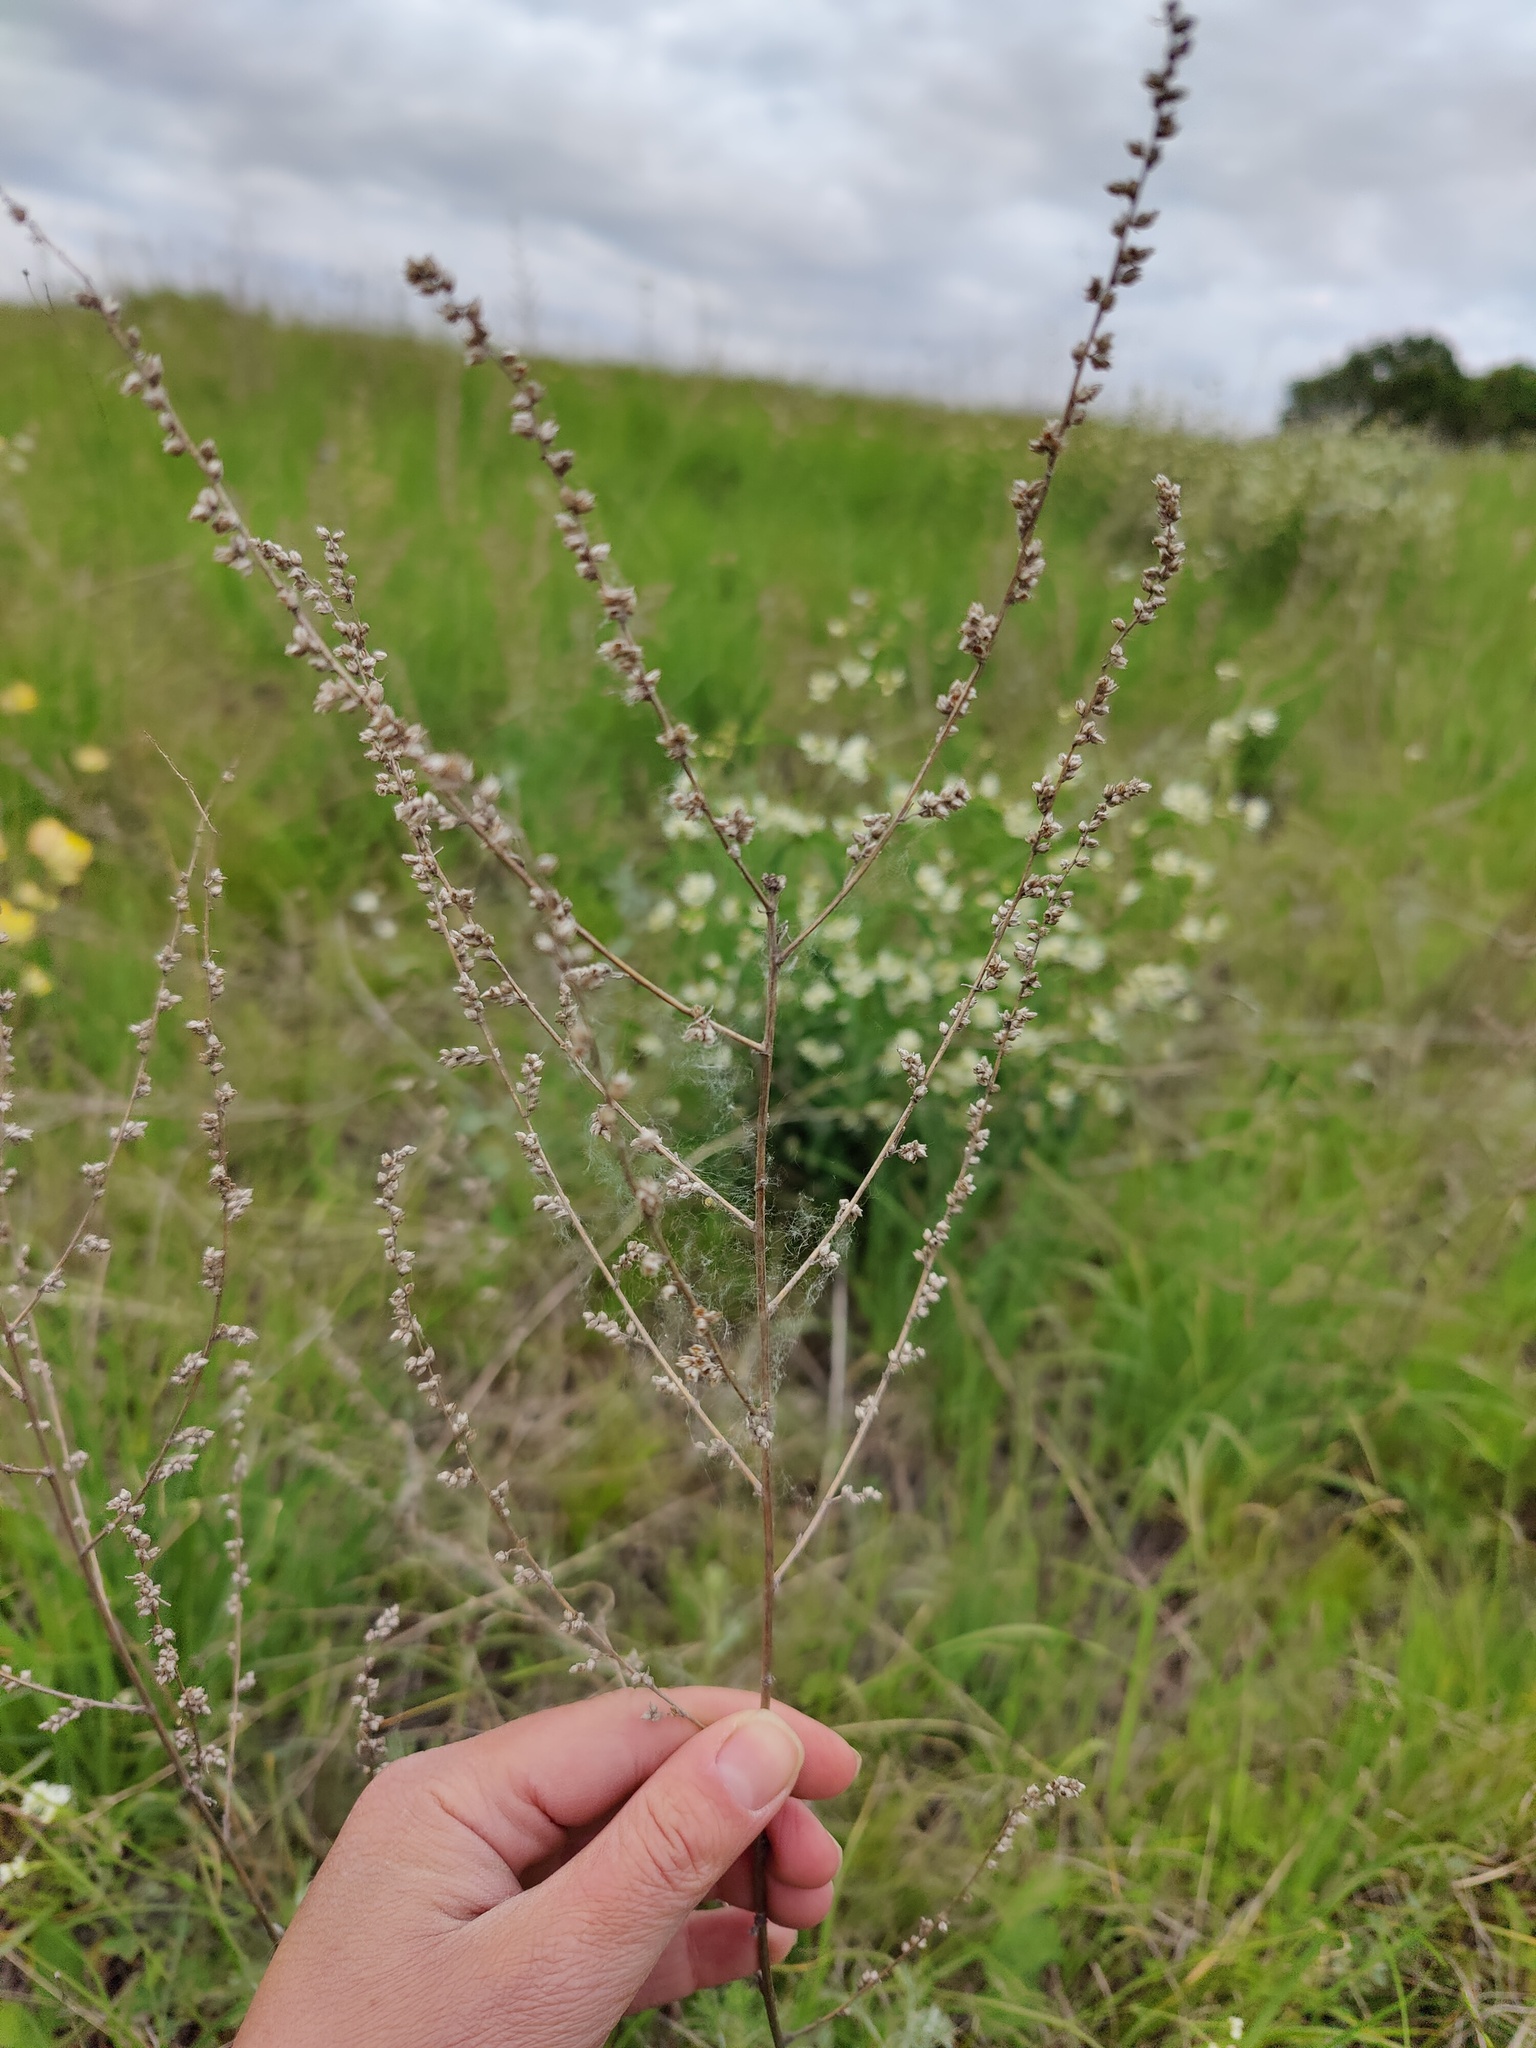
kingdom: Plantae
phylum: Tracheophyta
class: Magnoliopsida
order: Asterales
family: Asteraceae
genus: Artemisia
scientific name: Artemisia campestris
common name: Field wormwood
